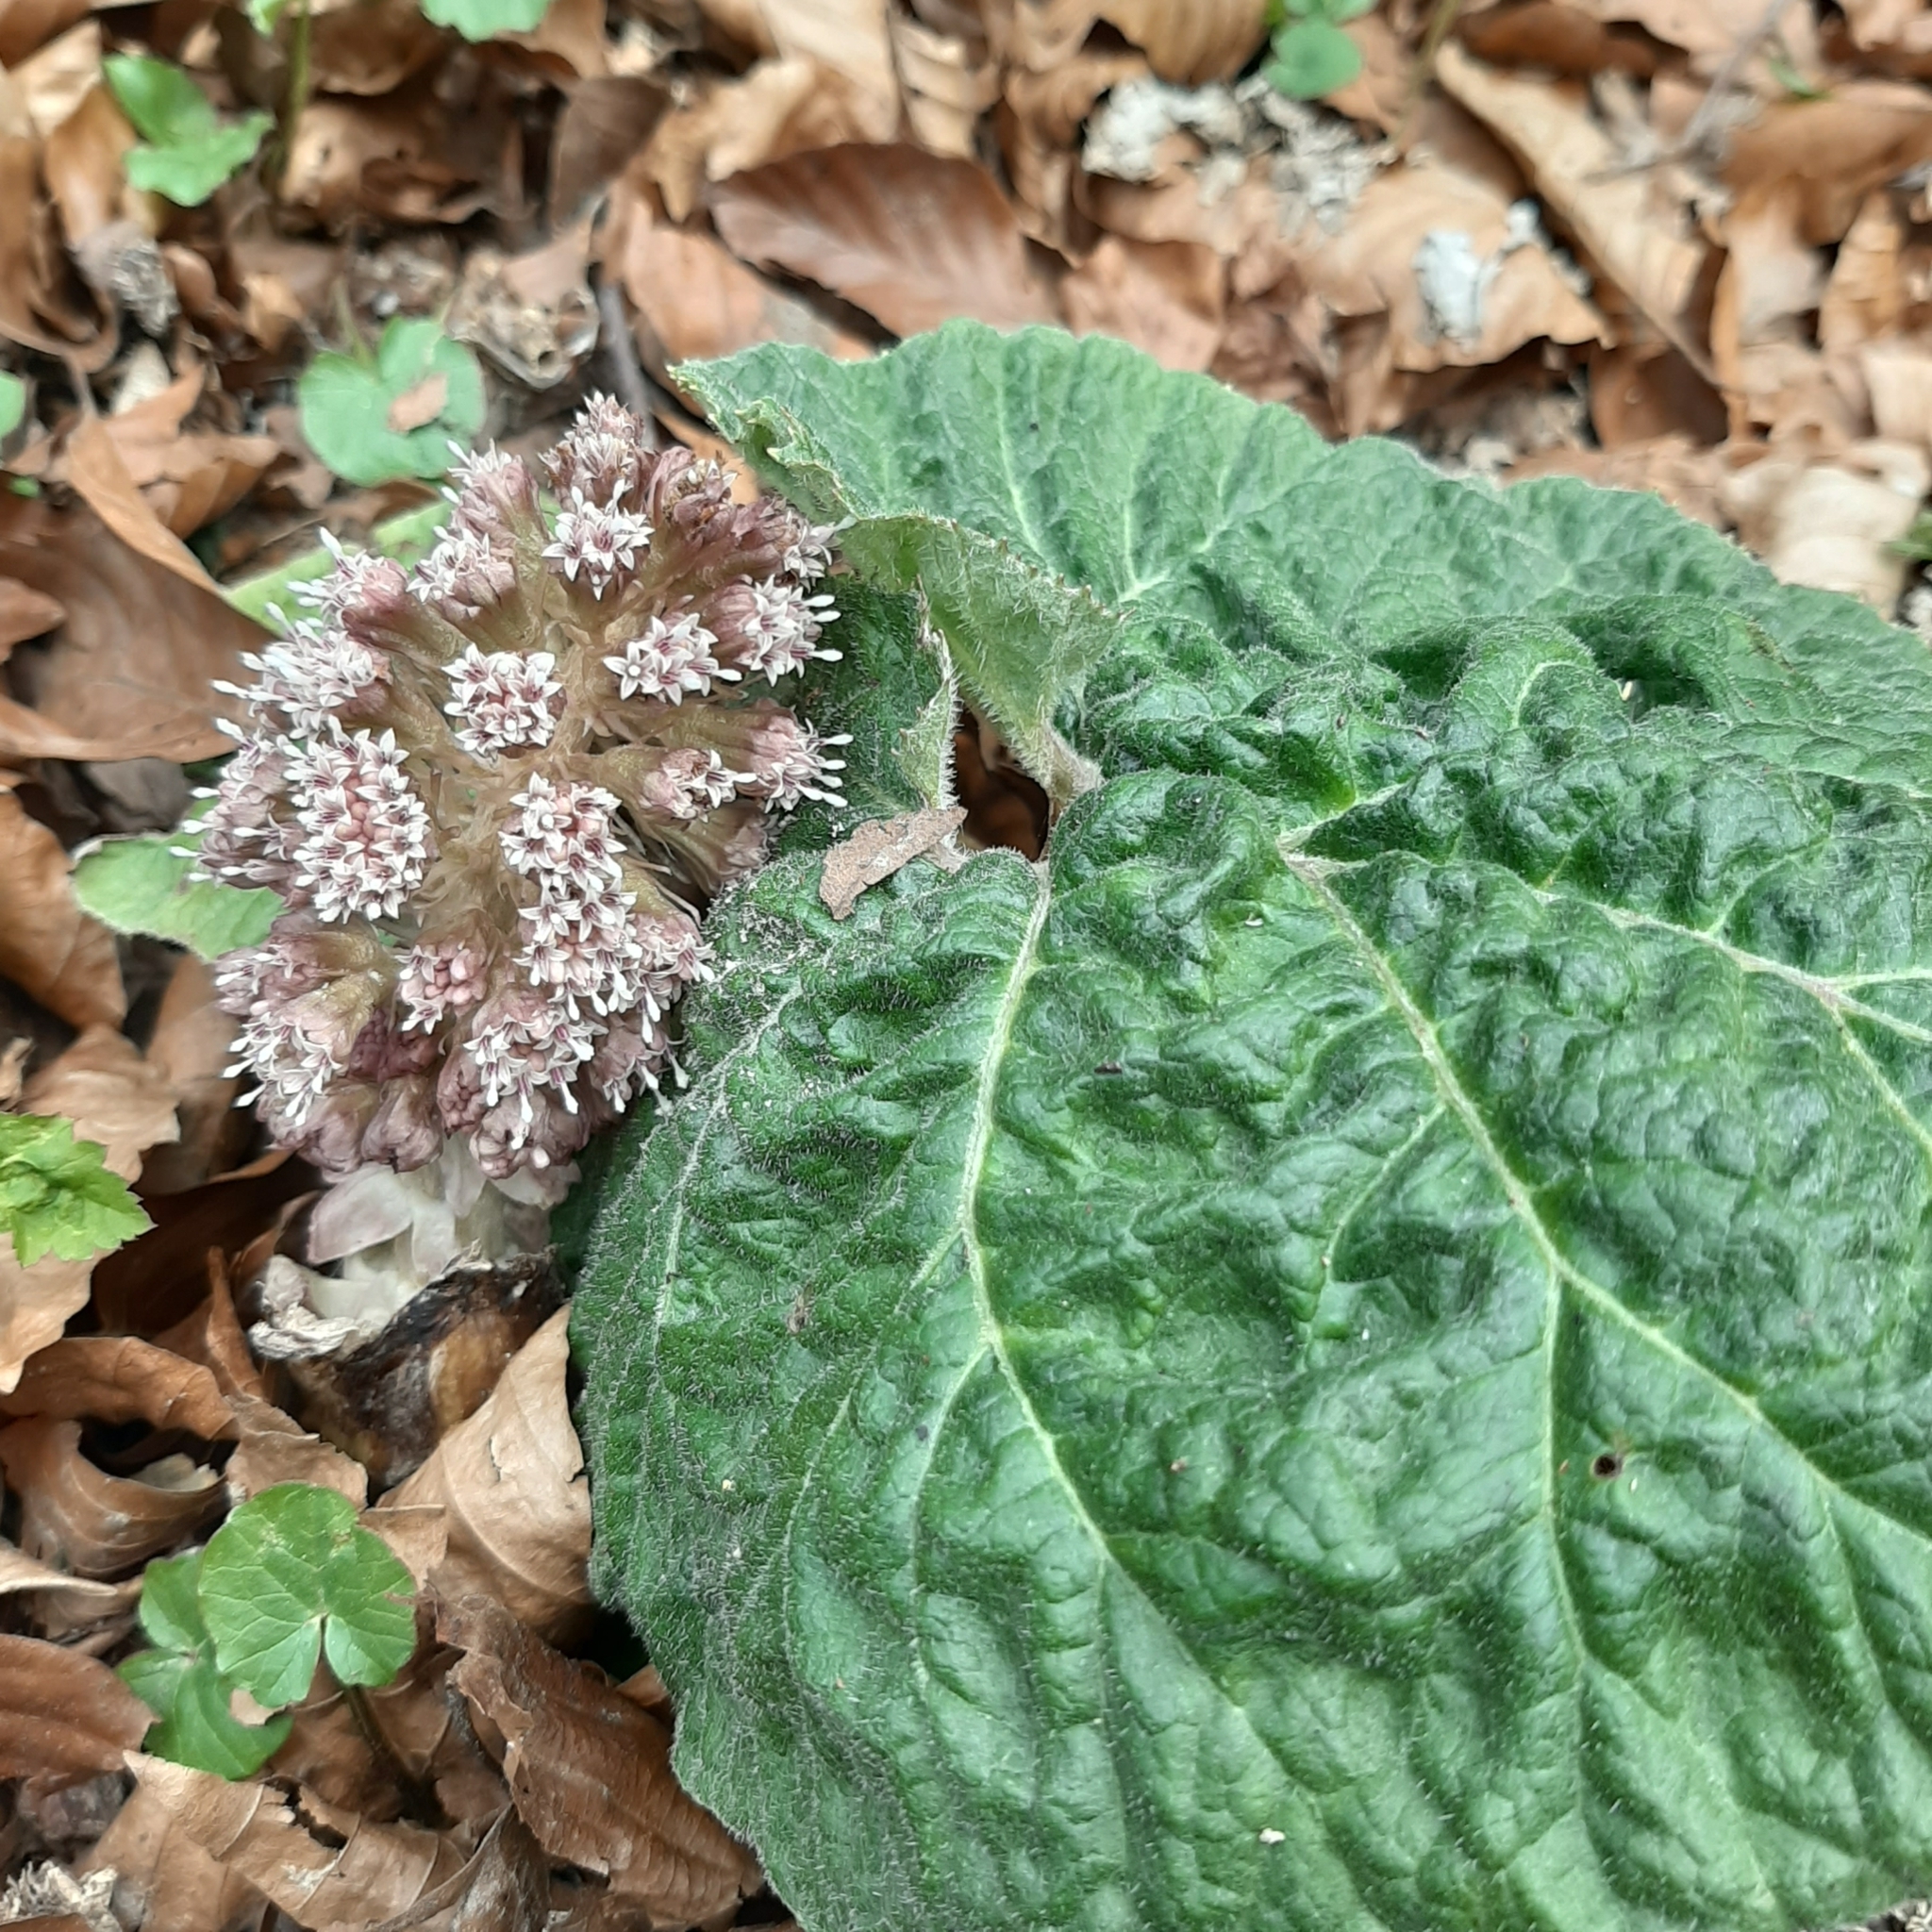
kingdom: Plantae
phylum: Tracheophyta
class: Magnoliopsida
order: Asterales
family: Asteraceae
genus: Petasites
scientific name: Petasites hybridus
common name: Butterbur
